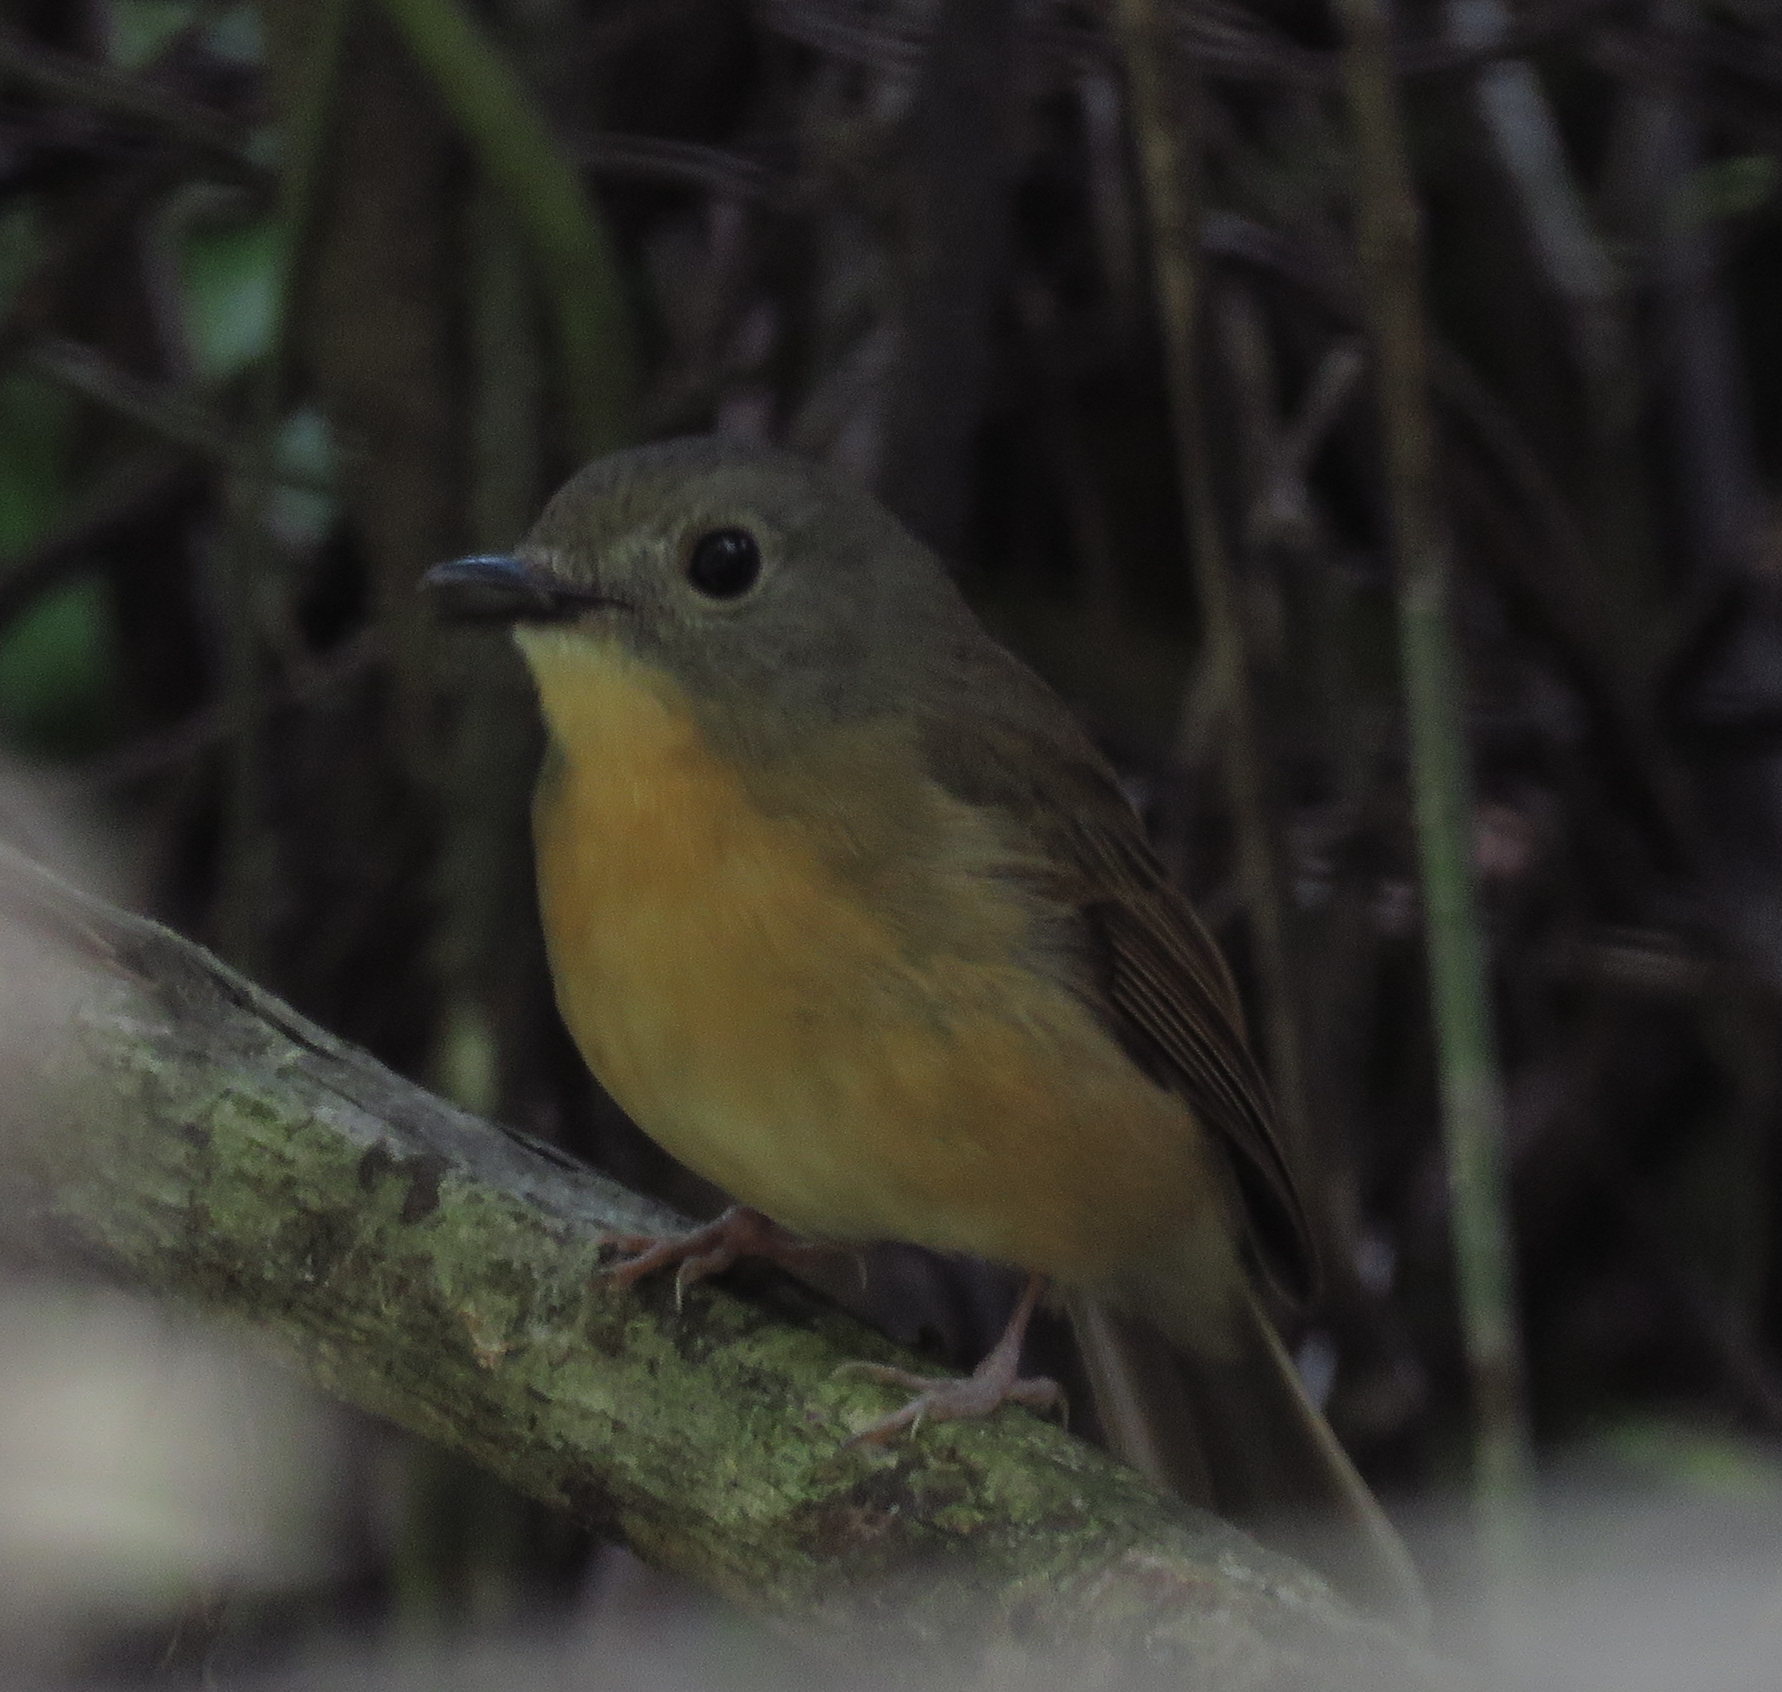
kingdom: Animalia
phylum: Chordata
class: Aves
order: Passeriformes
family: Muscicapidae
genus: Cyornis
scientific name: Cyornis poliogenys
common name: Pale-chinned blue flycatcher
